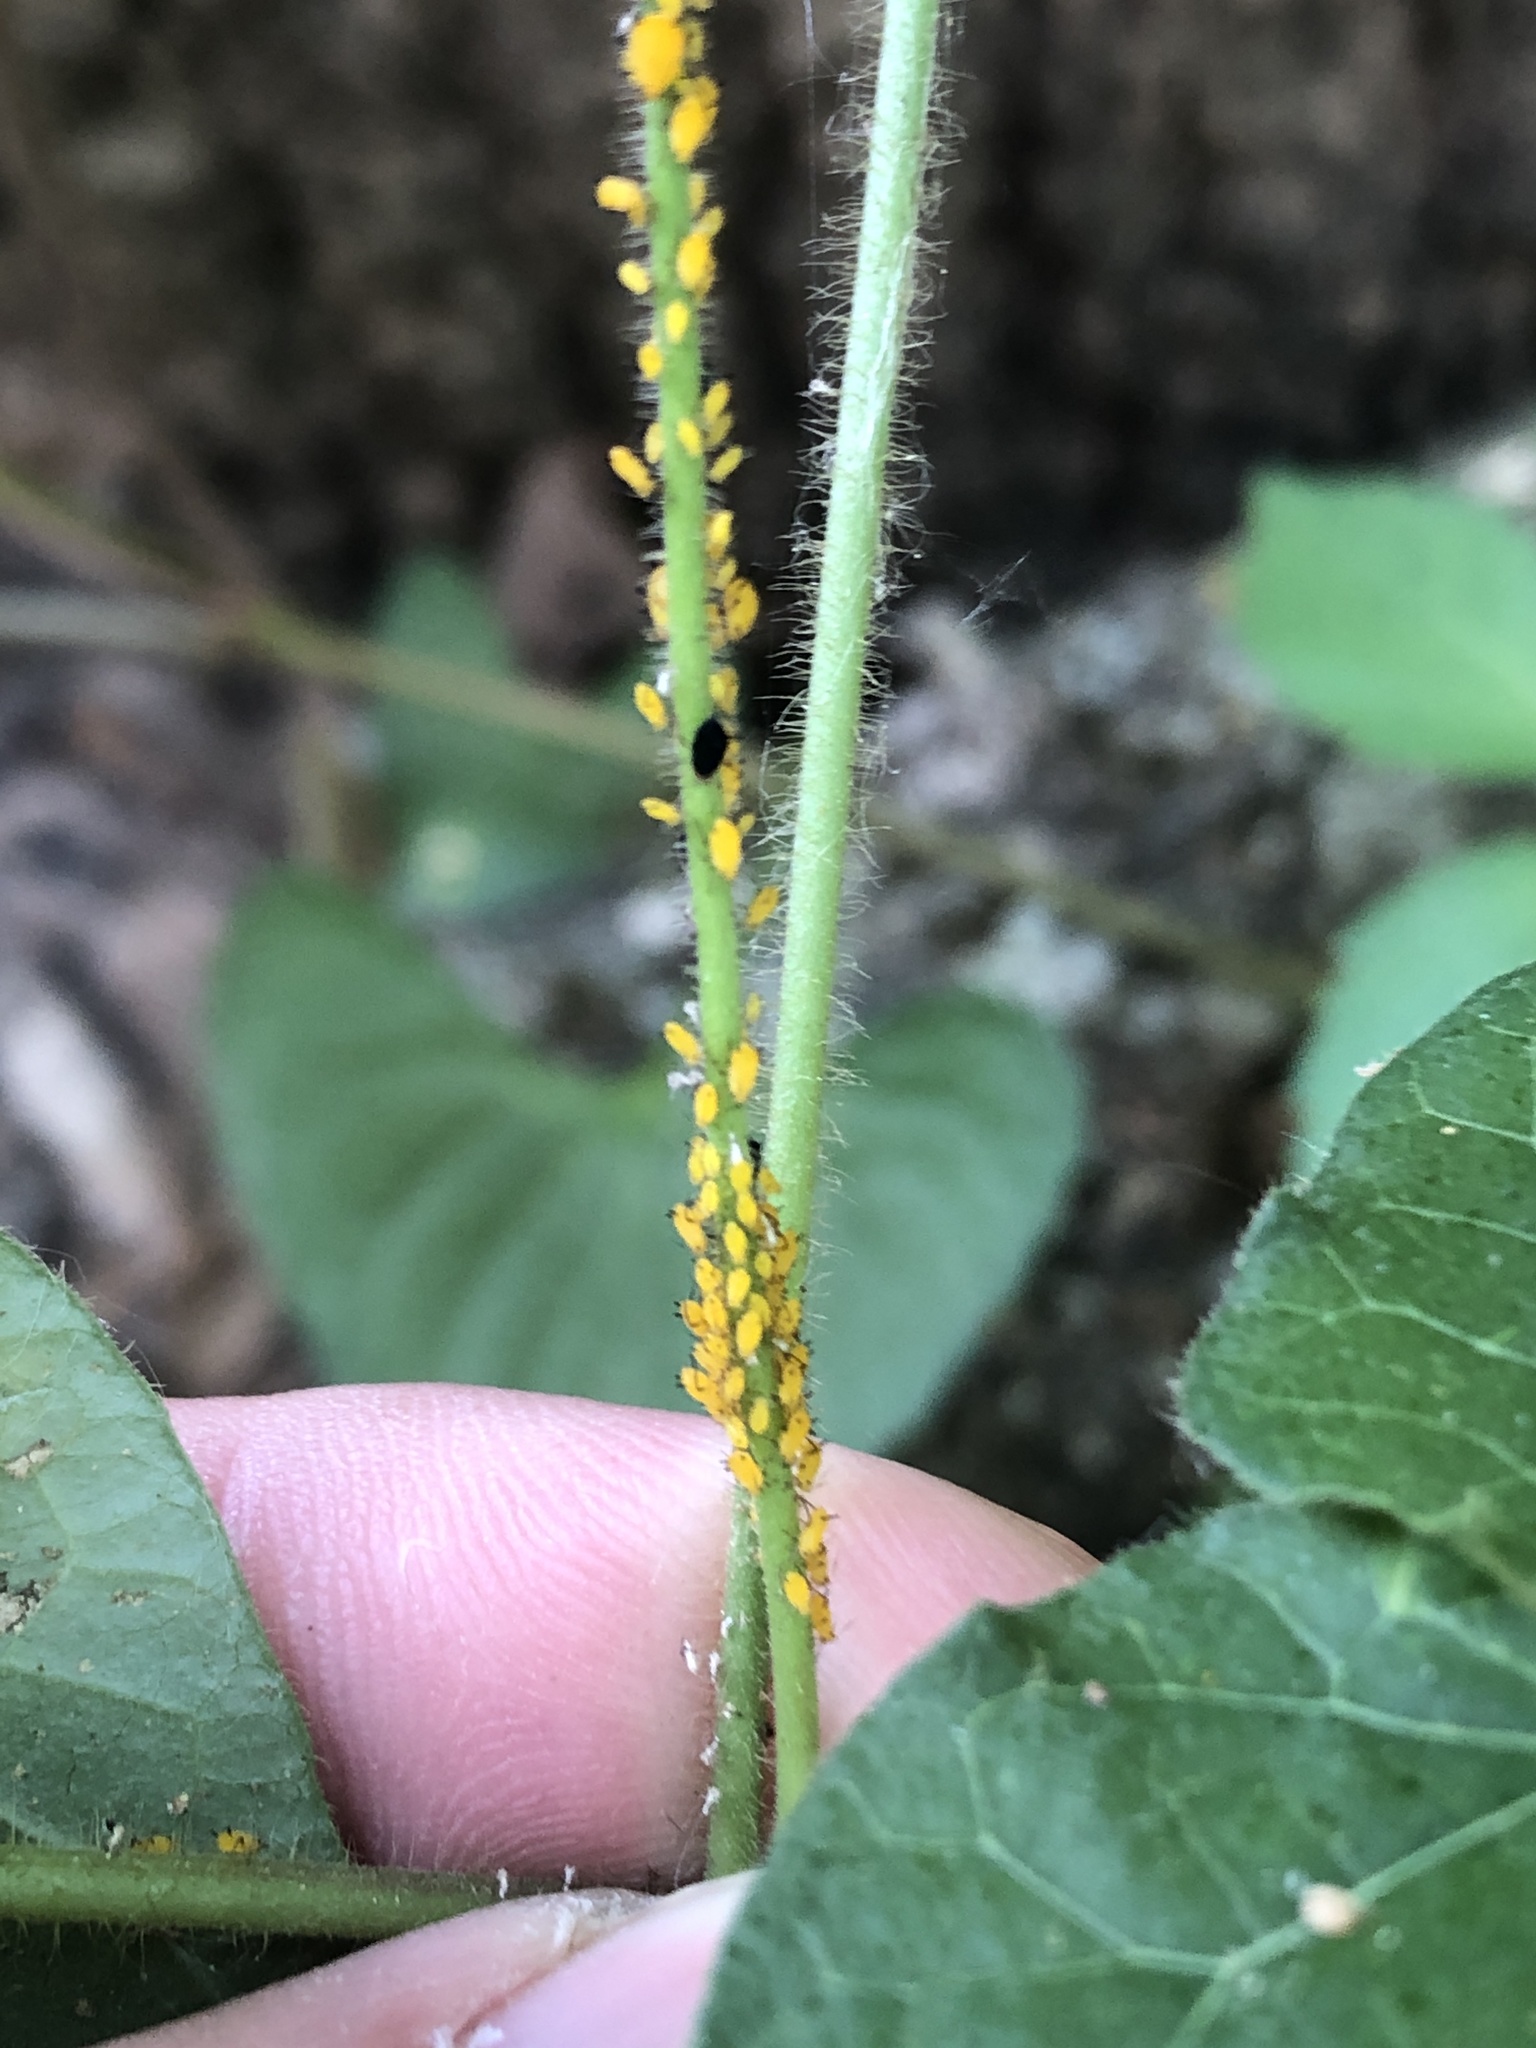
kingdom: Animalia
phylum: Arthropoda
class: Insecta
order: Hemiptera
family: Aphididae
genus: Aphis
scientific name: Aphis nerii
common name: Oleander aphid
